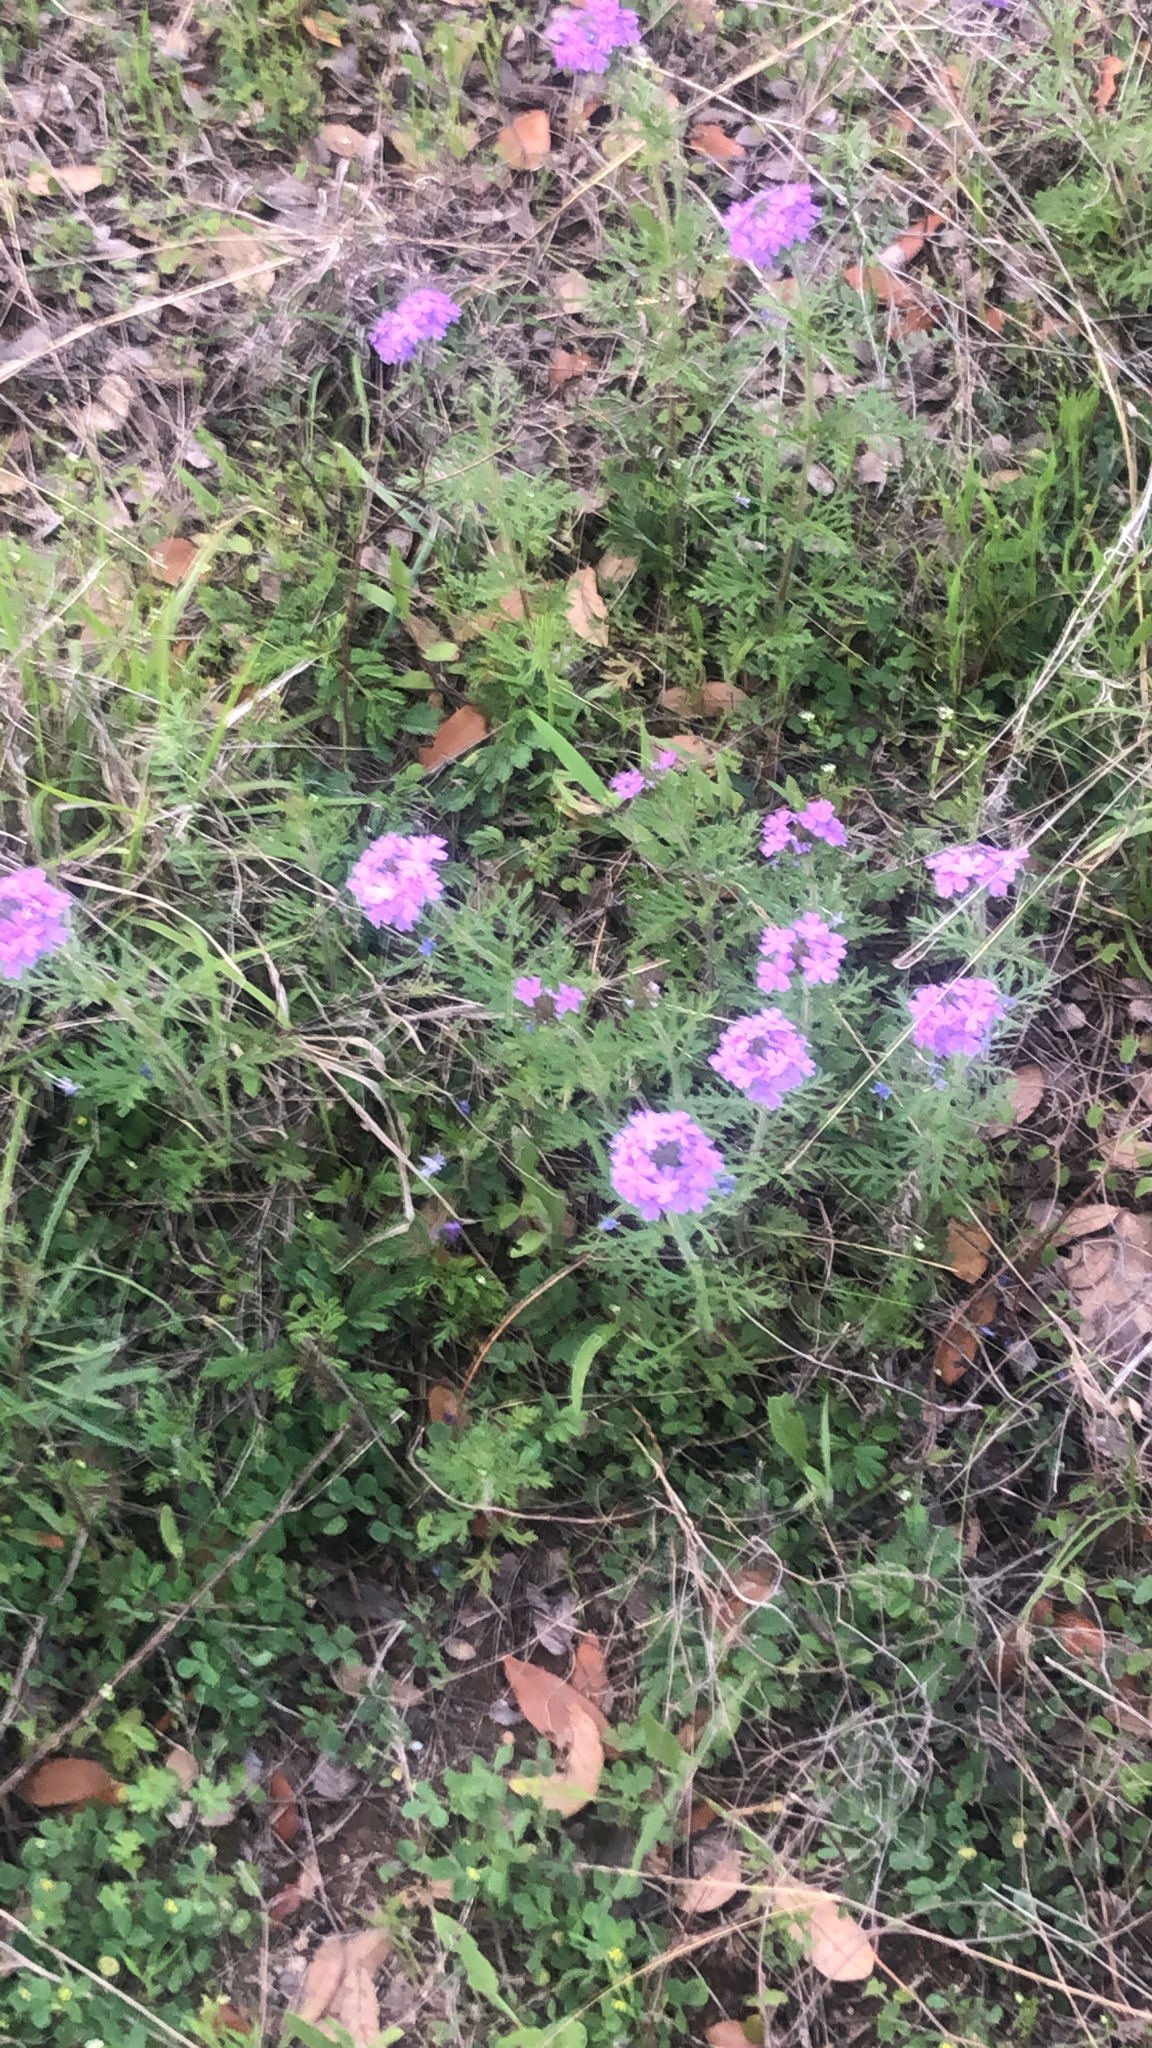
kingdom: Plantae
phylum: Tracheophyta
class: Magnoliopsida
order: Lamiales
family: Verbenaceae
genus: Verbena
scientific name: Verbena bipinnatifida
